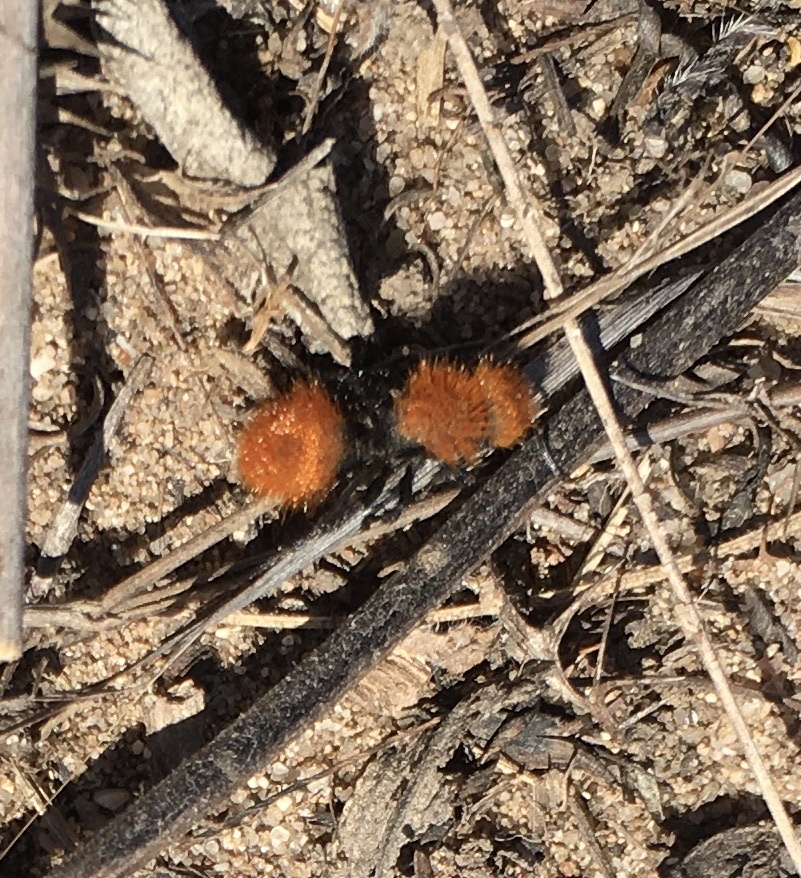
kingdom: Animalia
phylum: Arthropoda
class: Insecta
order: Hymenoptera
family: Mutillidae
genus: Dasymutilla
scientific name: Dasymutilla
